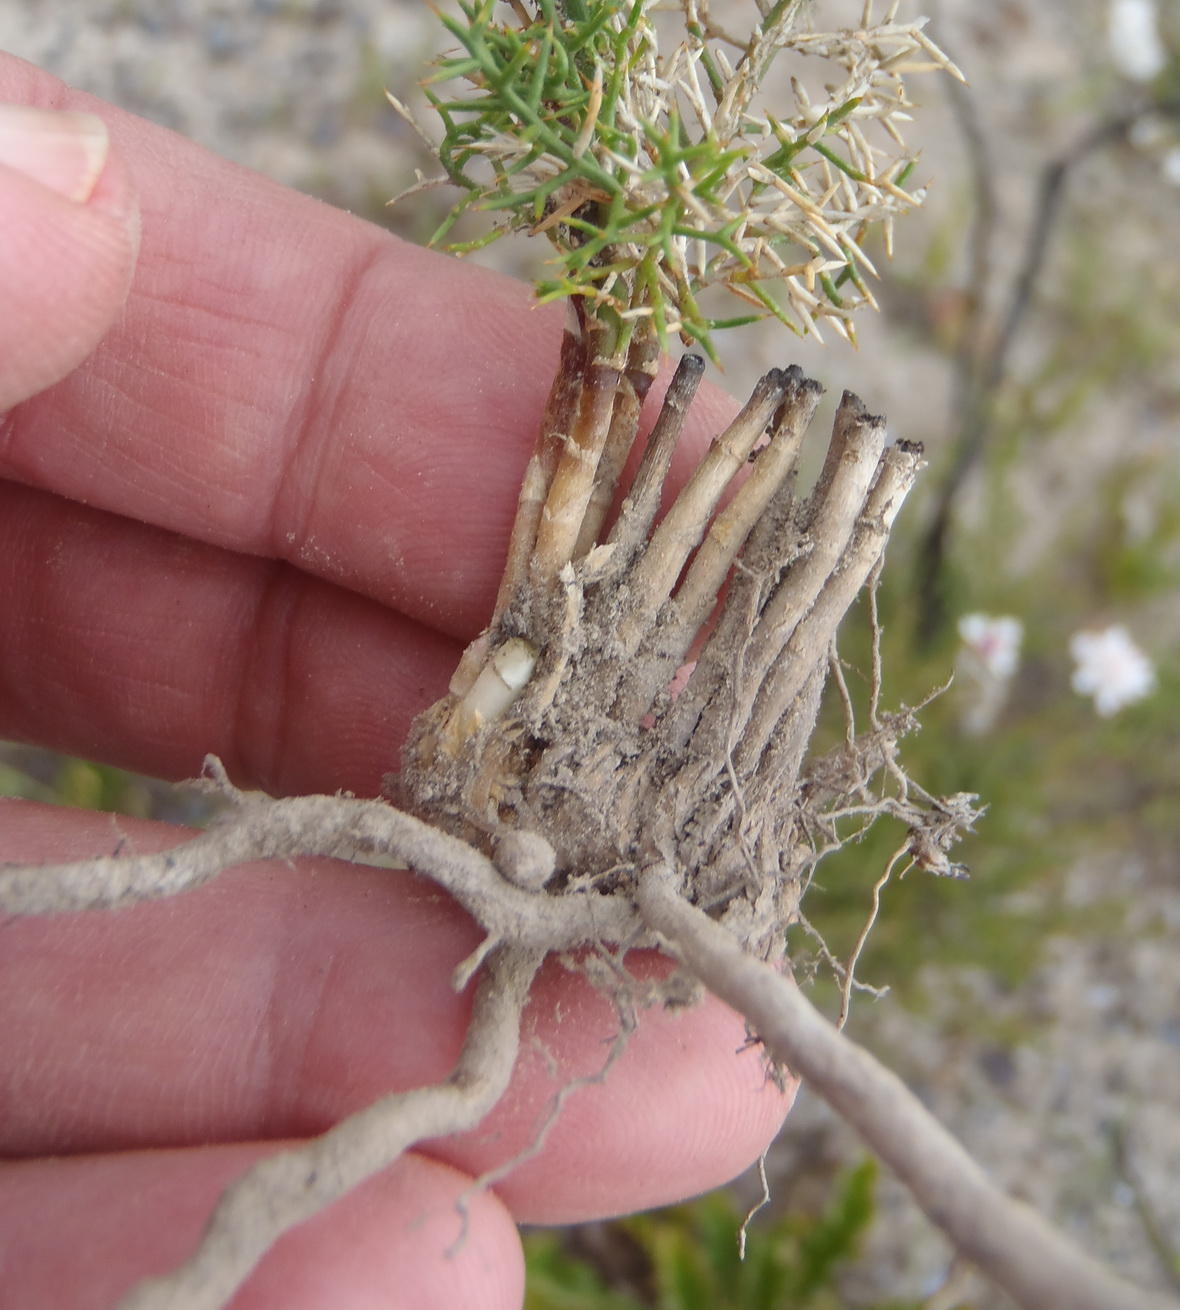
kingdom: Plantae
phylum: Tracheophyta
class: Liliopsida
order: Asparagales
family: Asparagaceae
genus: Asparagus
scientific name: Asparagus oliveri
